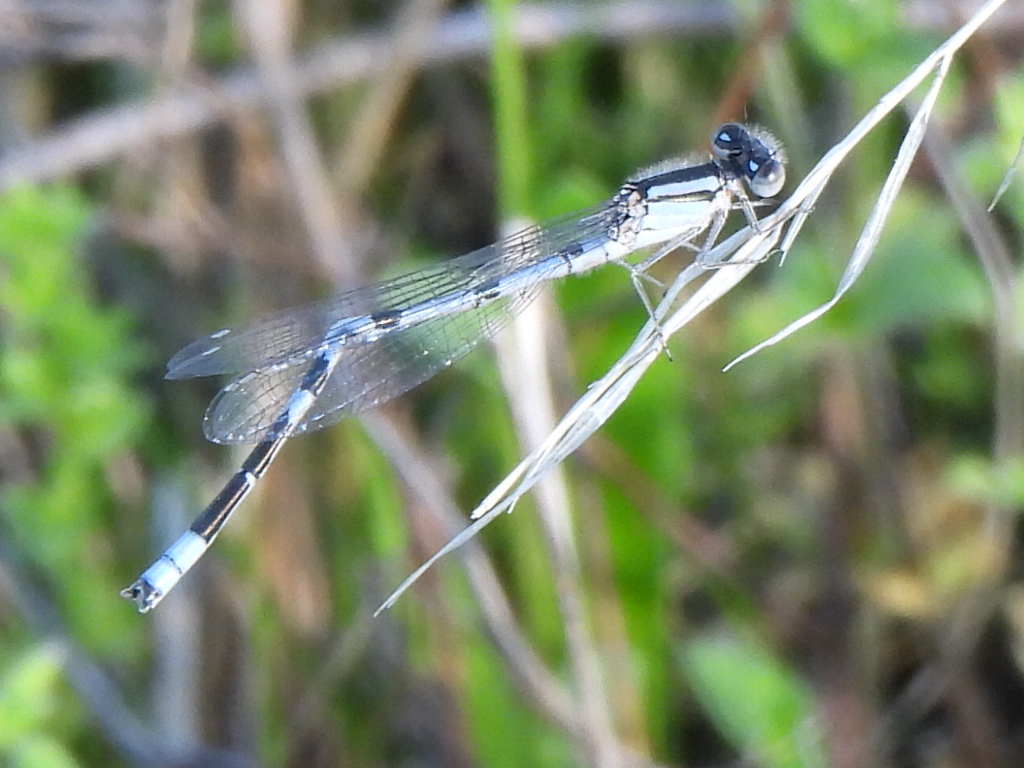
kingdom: Animalia
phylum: Arthropoda
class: Insecta
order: Odonata
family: Coenagrionidae
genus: Enallagma
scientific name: Enallagma civile
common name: Damselfly
